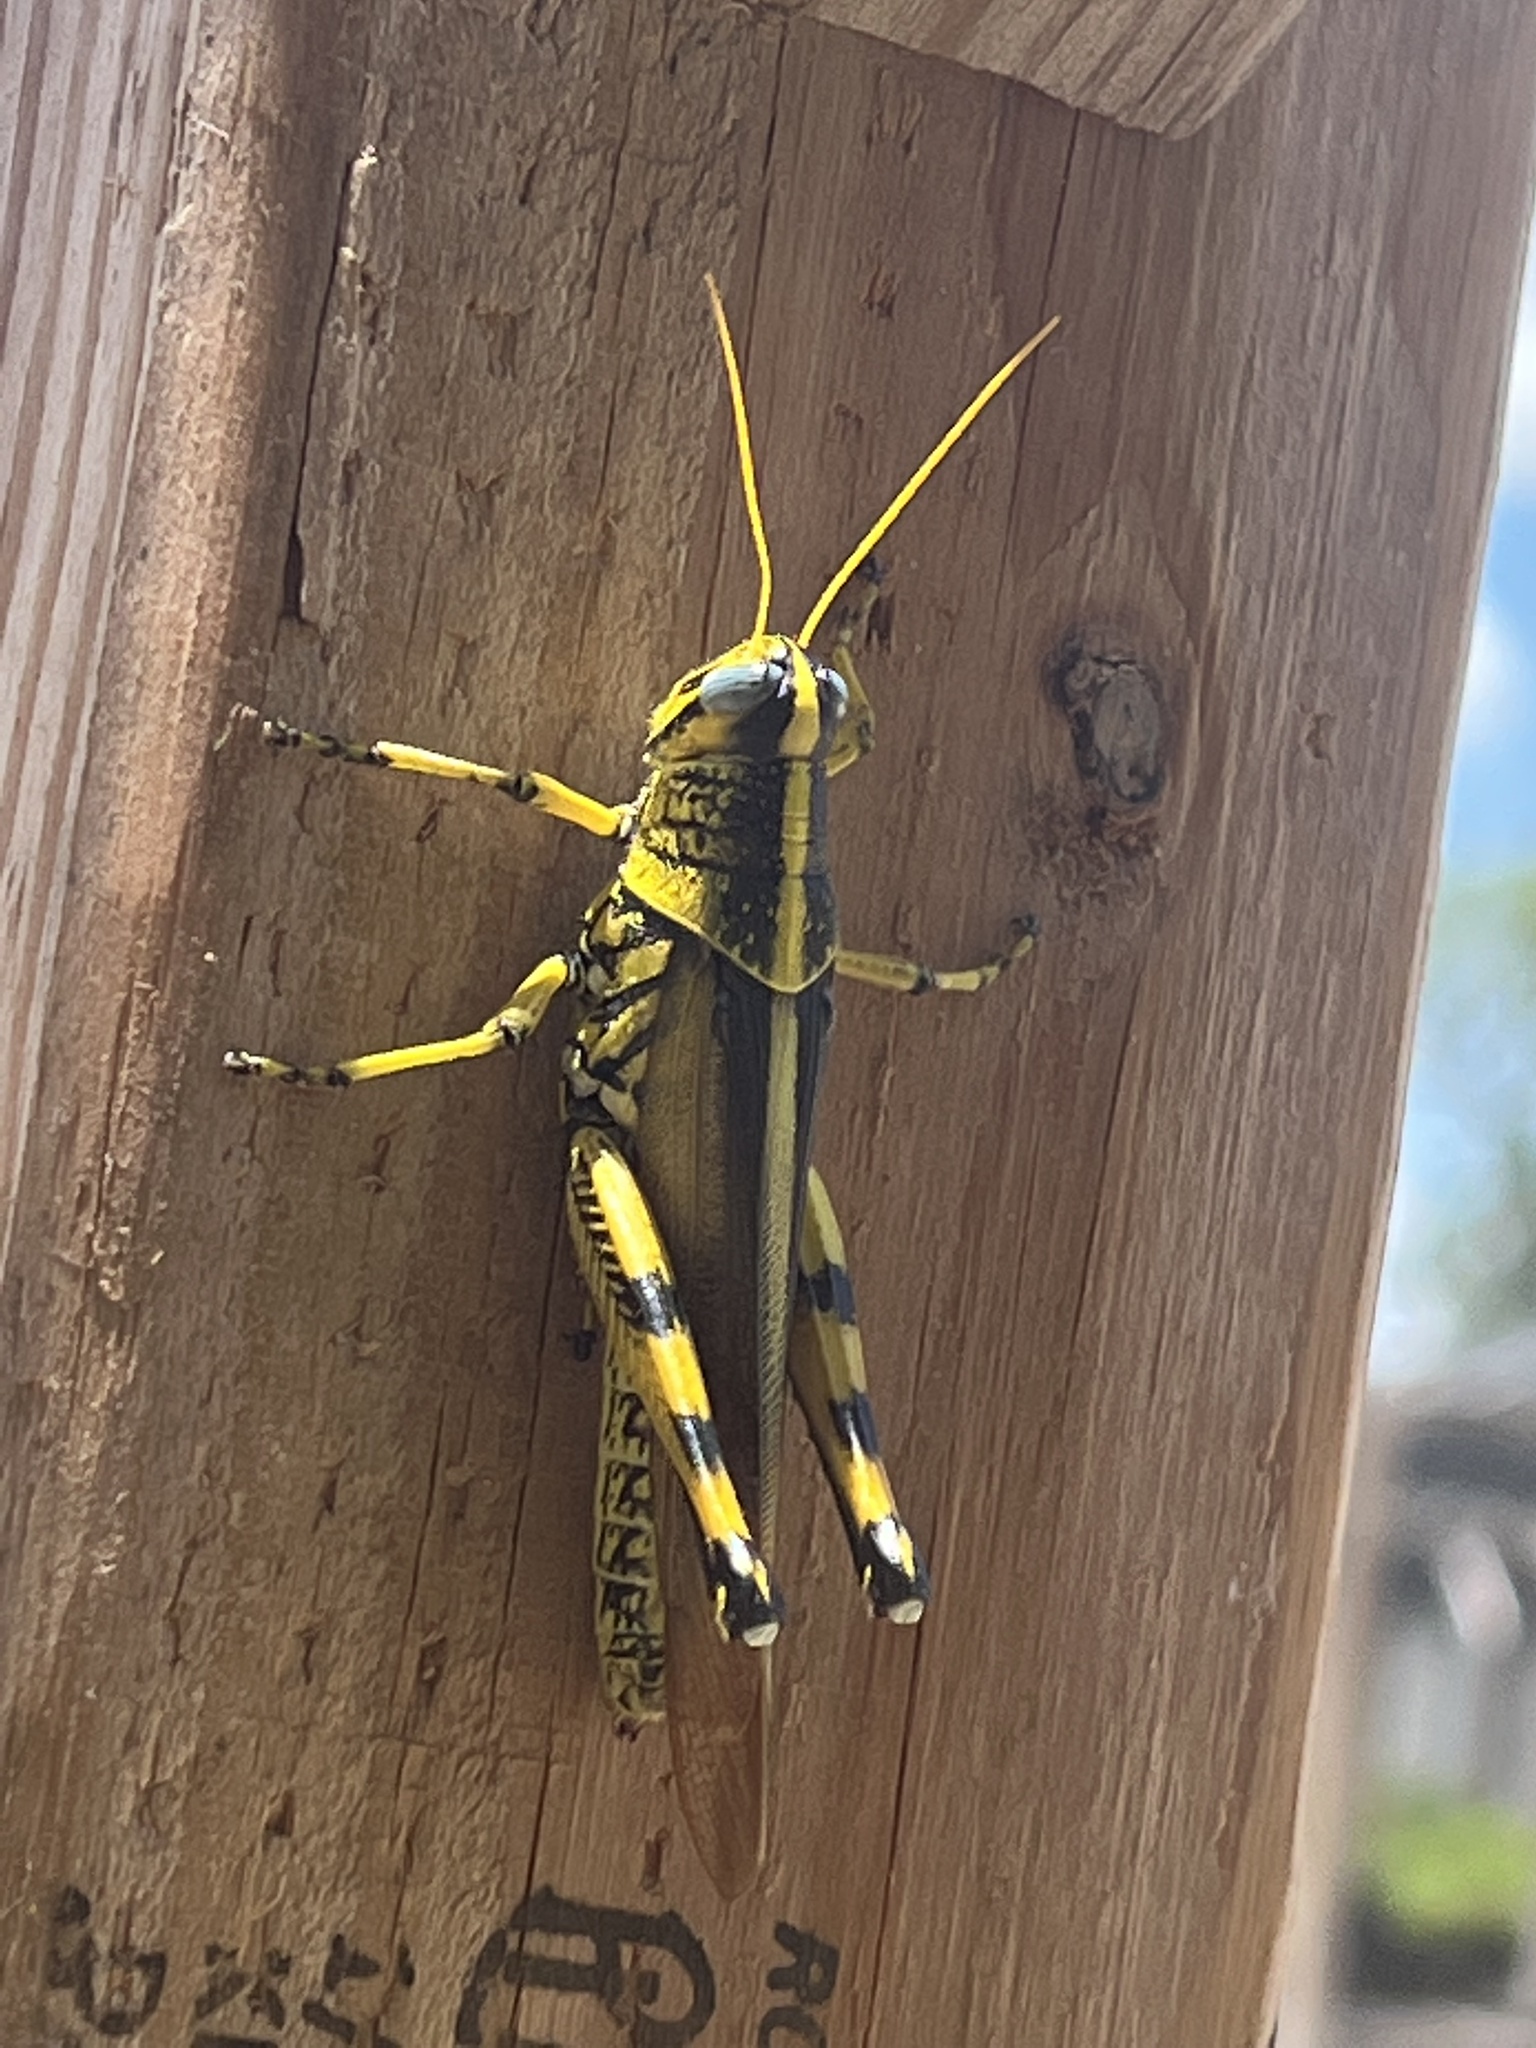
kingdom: Animalia
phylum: Arthropoda
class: Insecta
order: Orthoptera
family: Acrididae
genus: Schistocerca
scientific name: Schistocerca lineata
